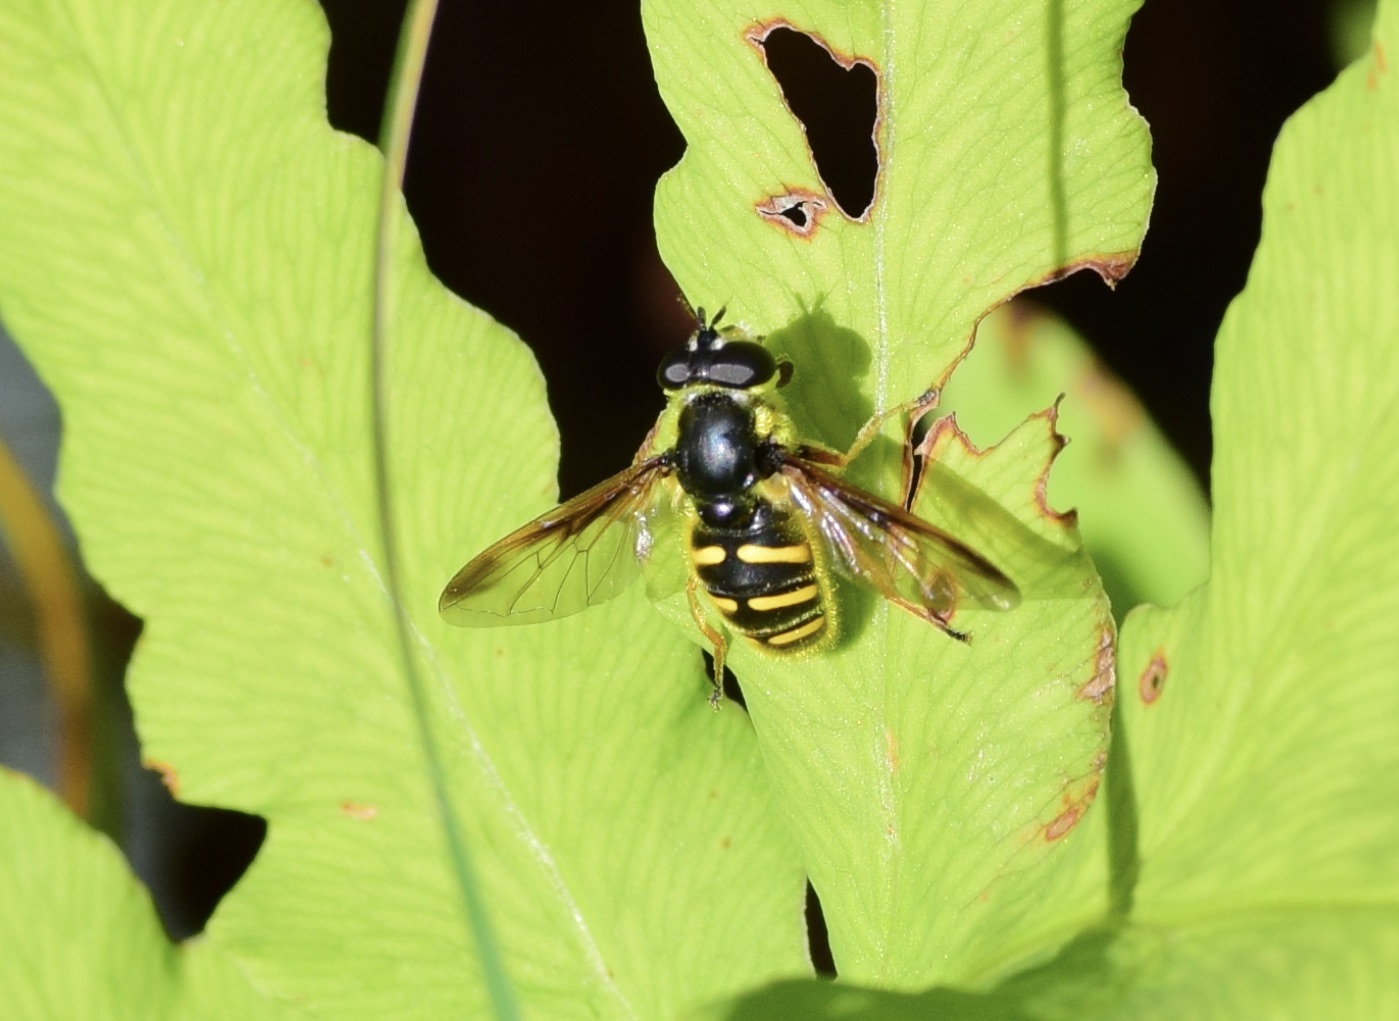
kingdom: Animalia
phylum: Arthropoda
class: Insecta
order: Diptera
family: Syrphidae
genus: Sericomyia
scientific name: Sericomyia chrysotoxoides
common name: Oblique-banded pond fly
